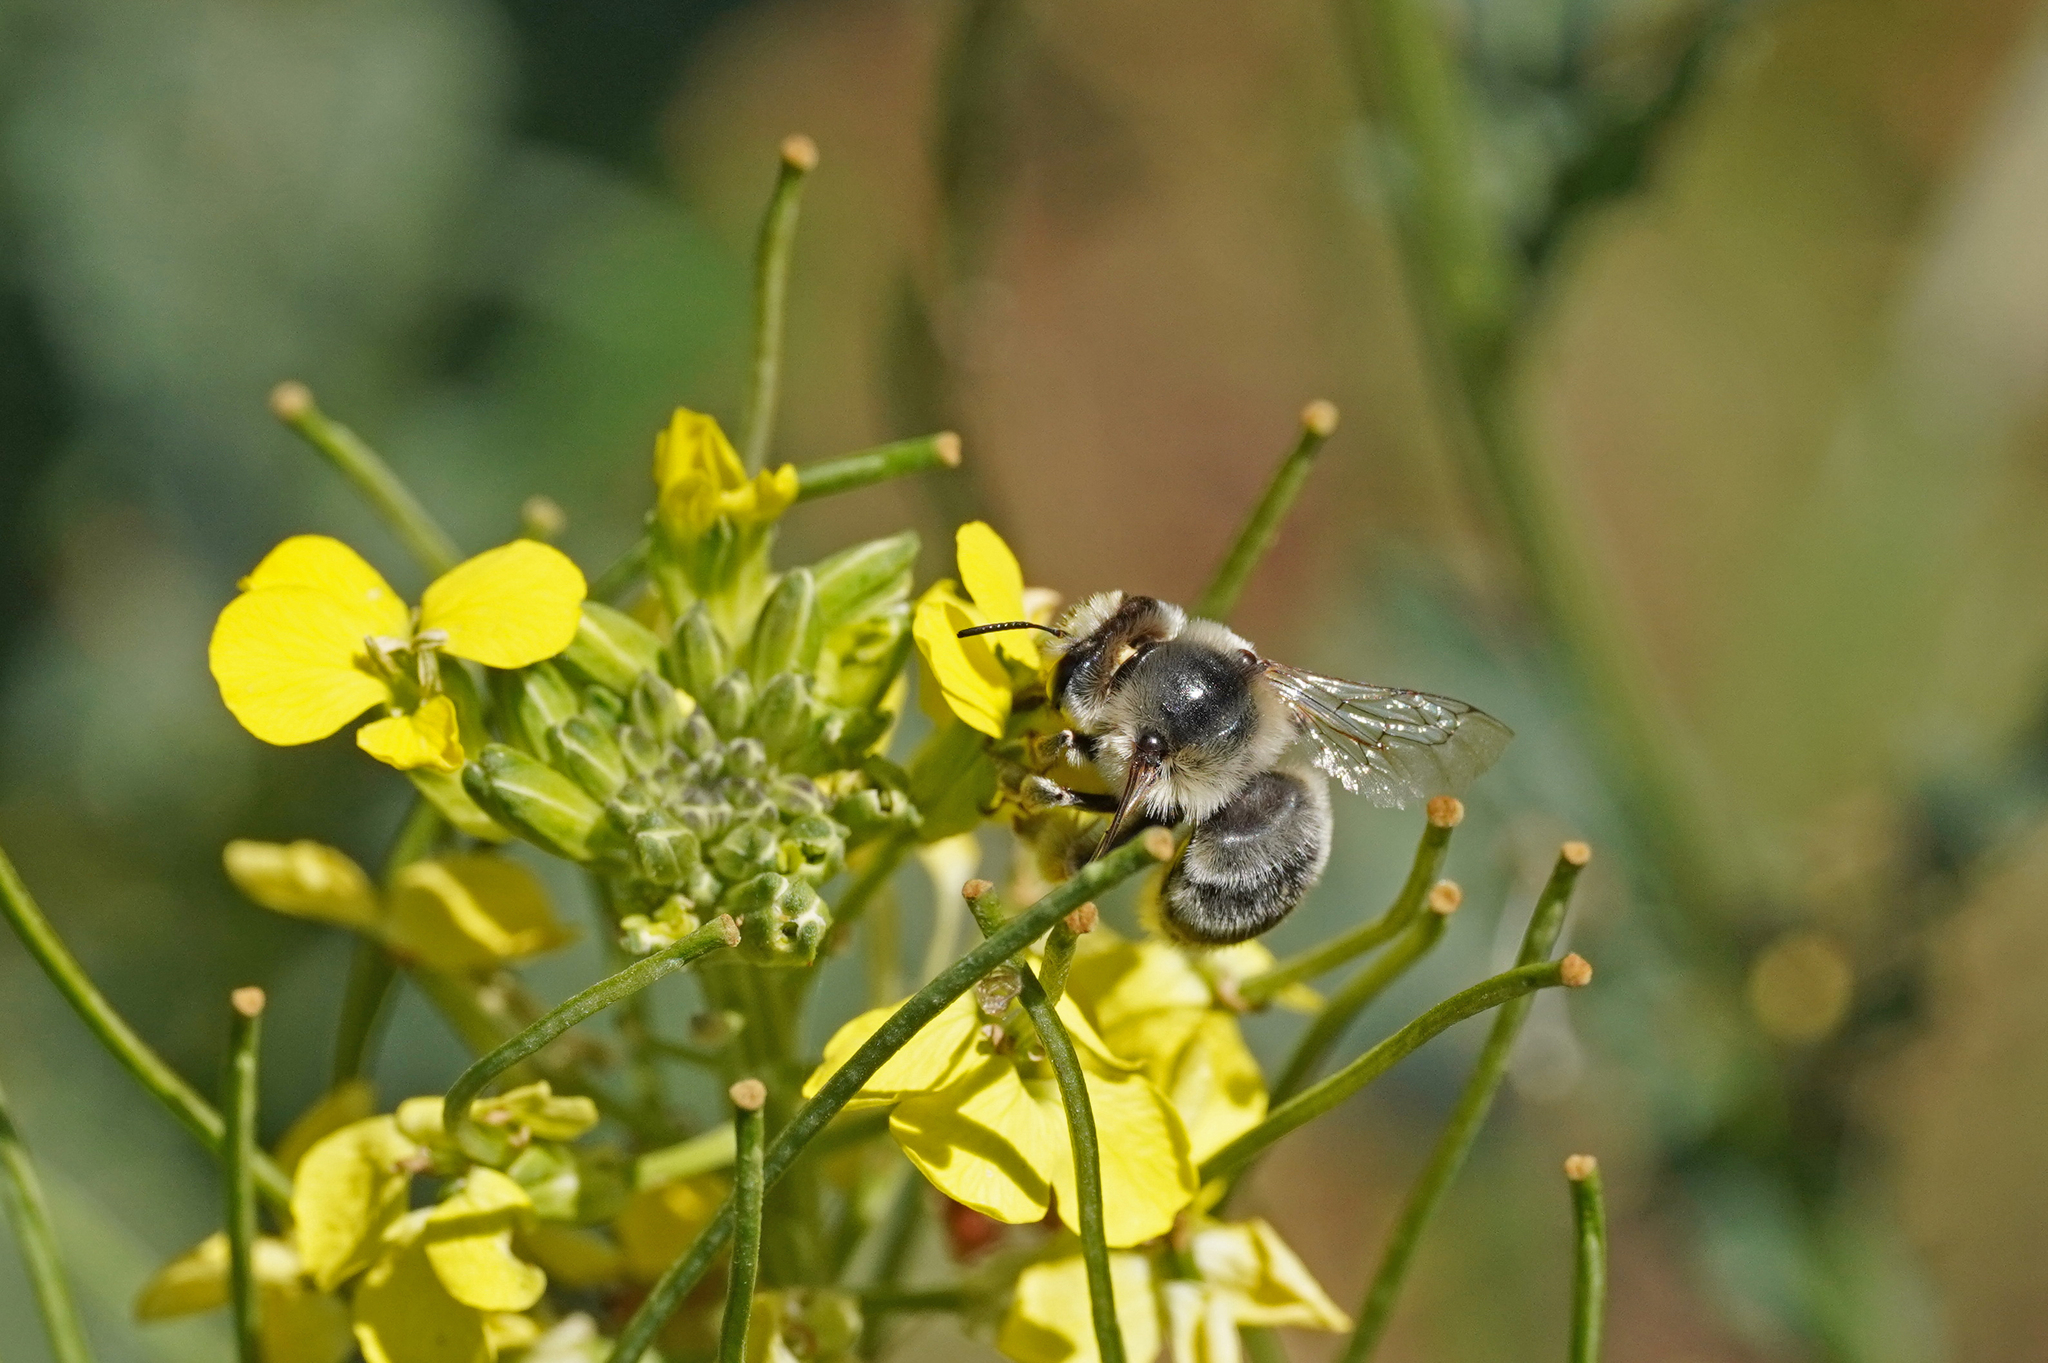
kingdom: Animalia
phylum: Arthropoda
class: Insecta
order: Hymenoptera
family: Apidae
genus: Anthophora
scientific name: Anthophora aestivalis
